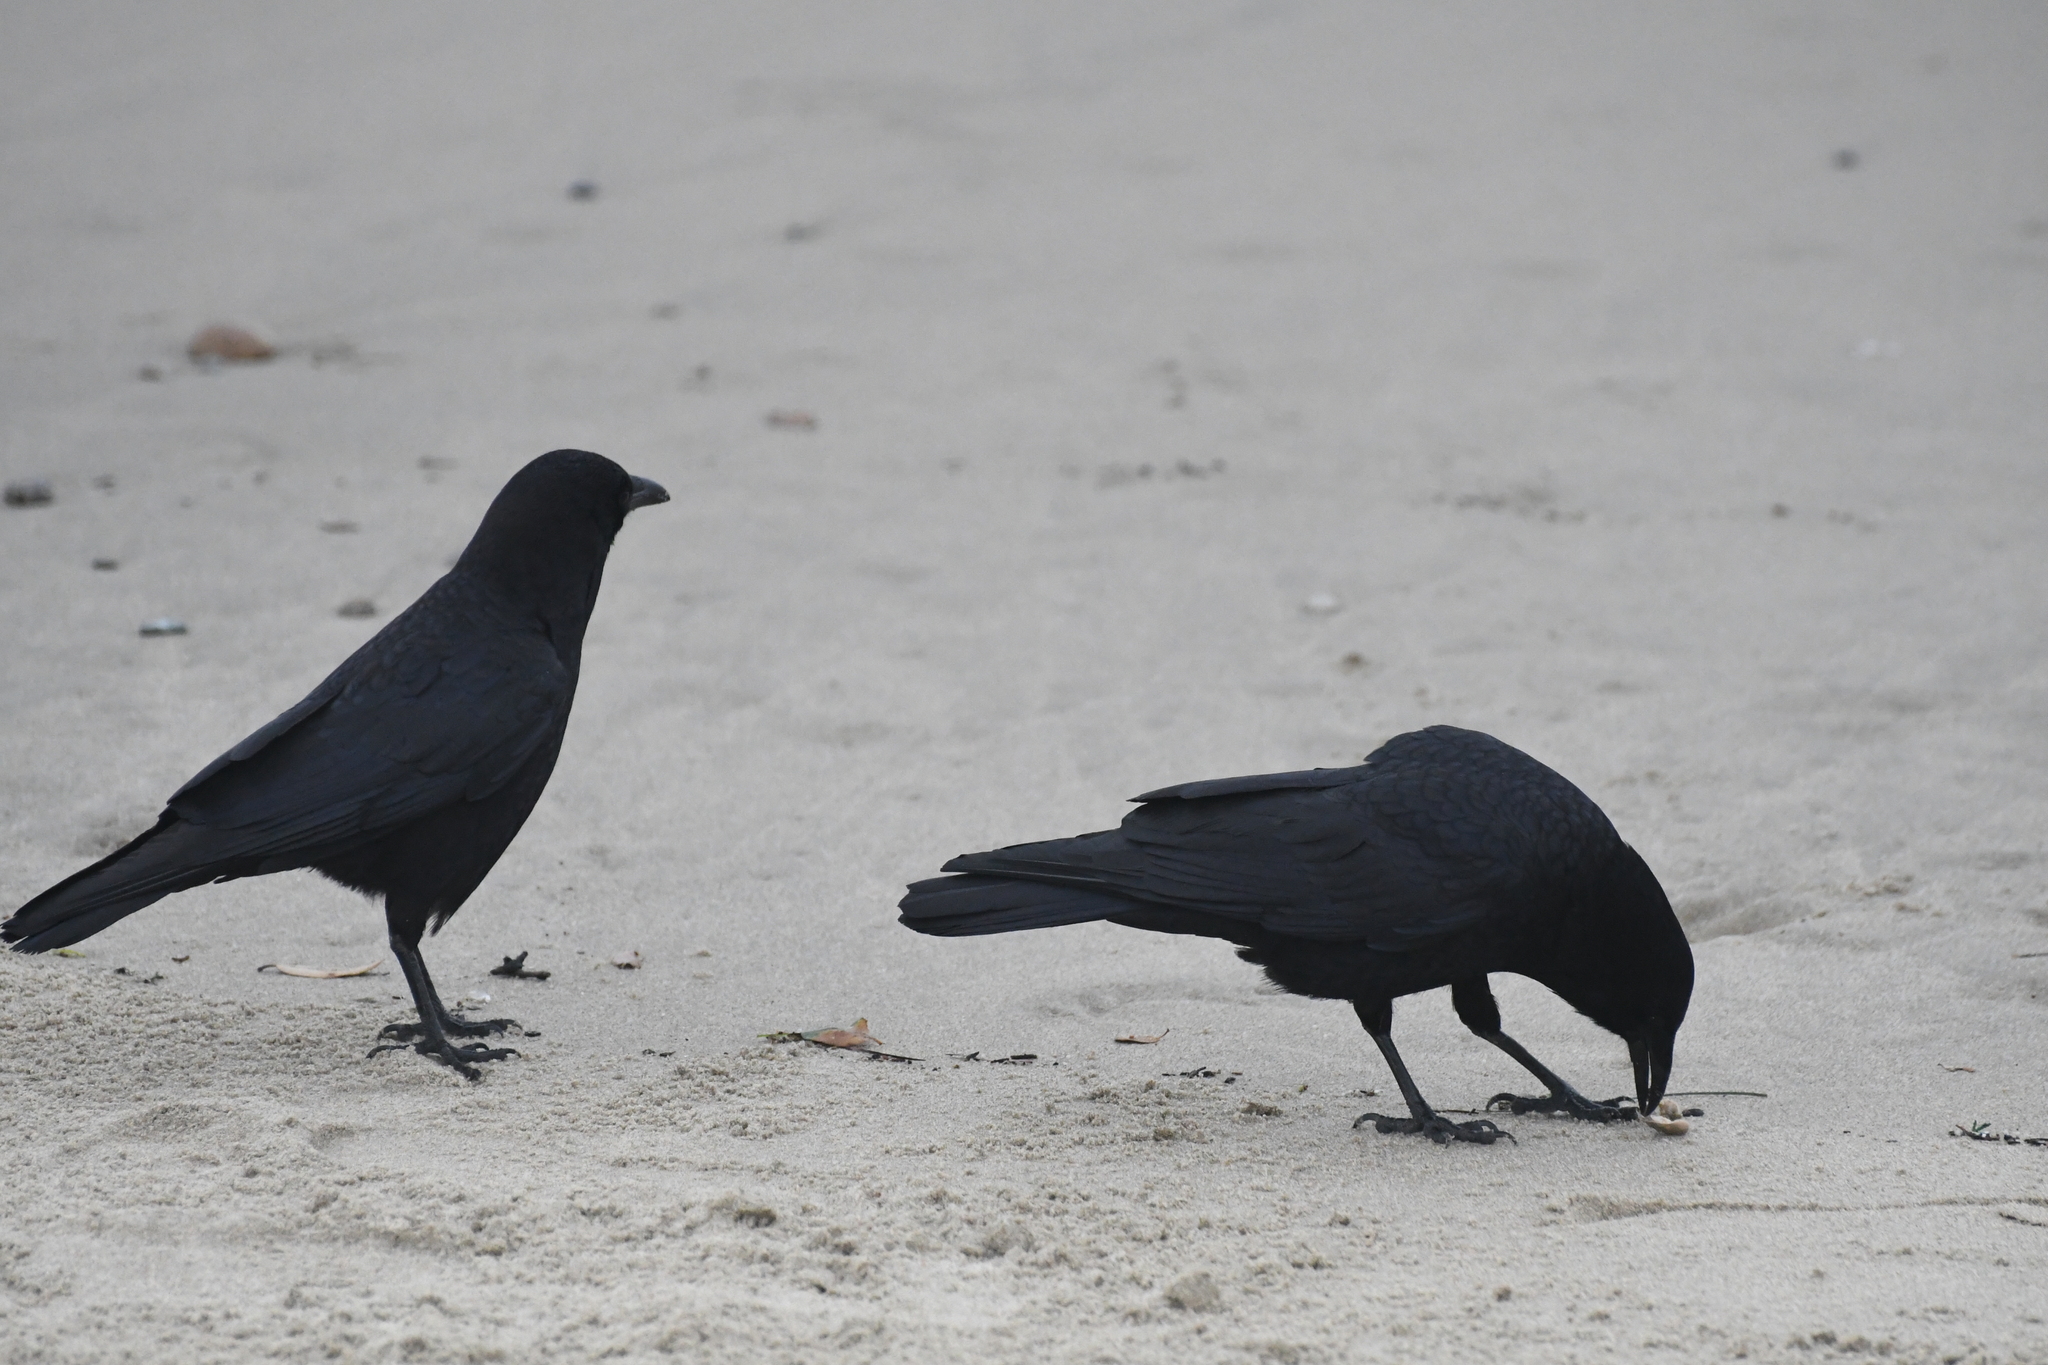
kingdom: Animalia
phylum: Chordata
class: Aves
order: Passeriformes
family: Corvidae
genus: Corvus
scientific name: Corvus brachyrhynchos
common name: American crow
